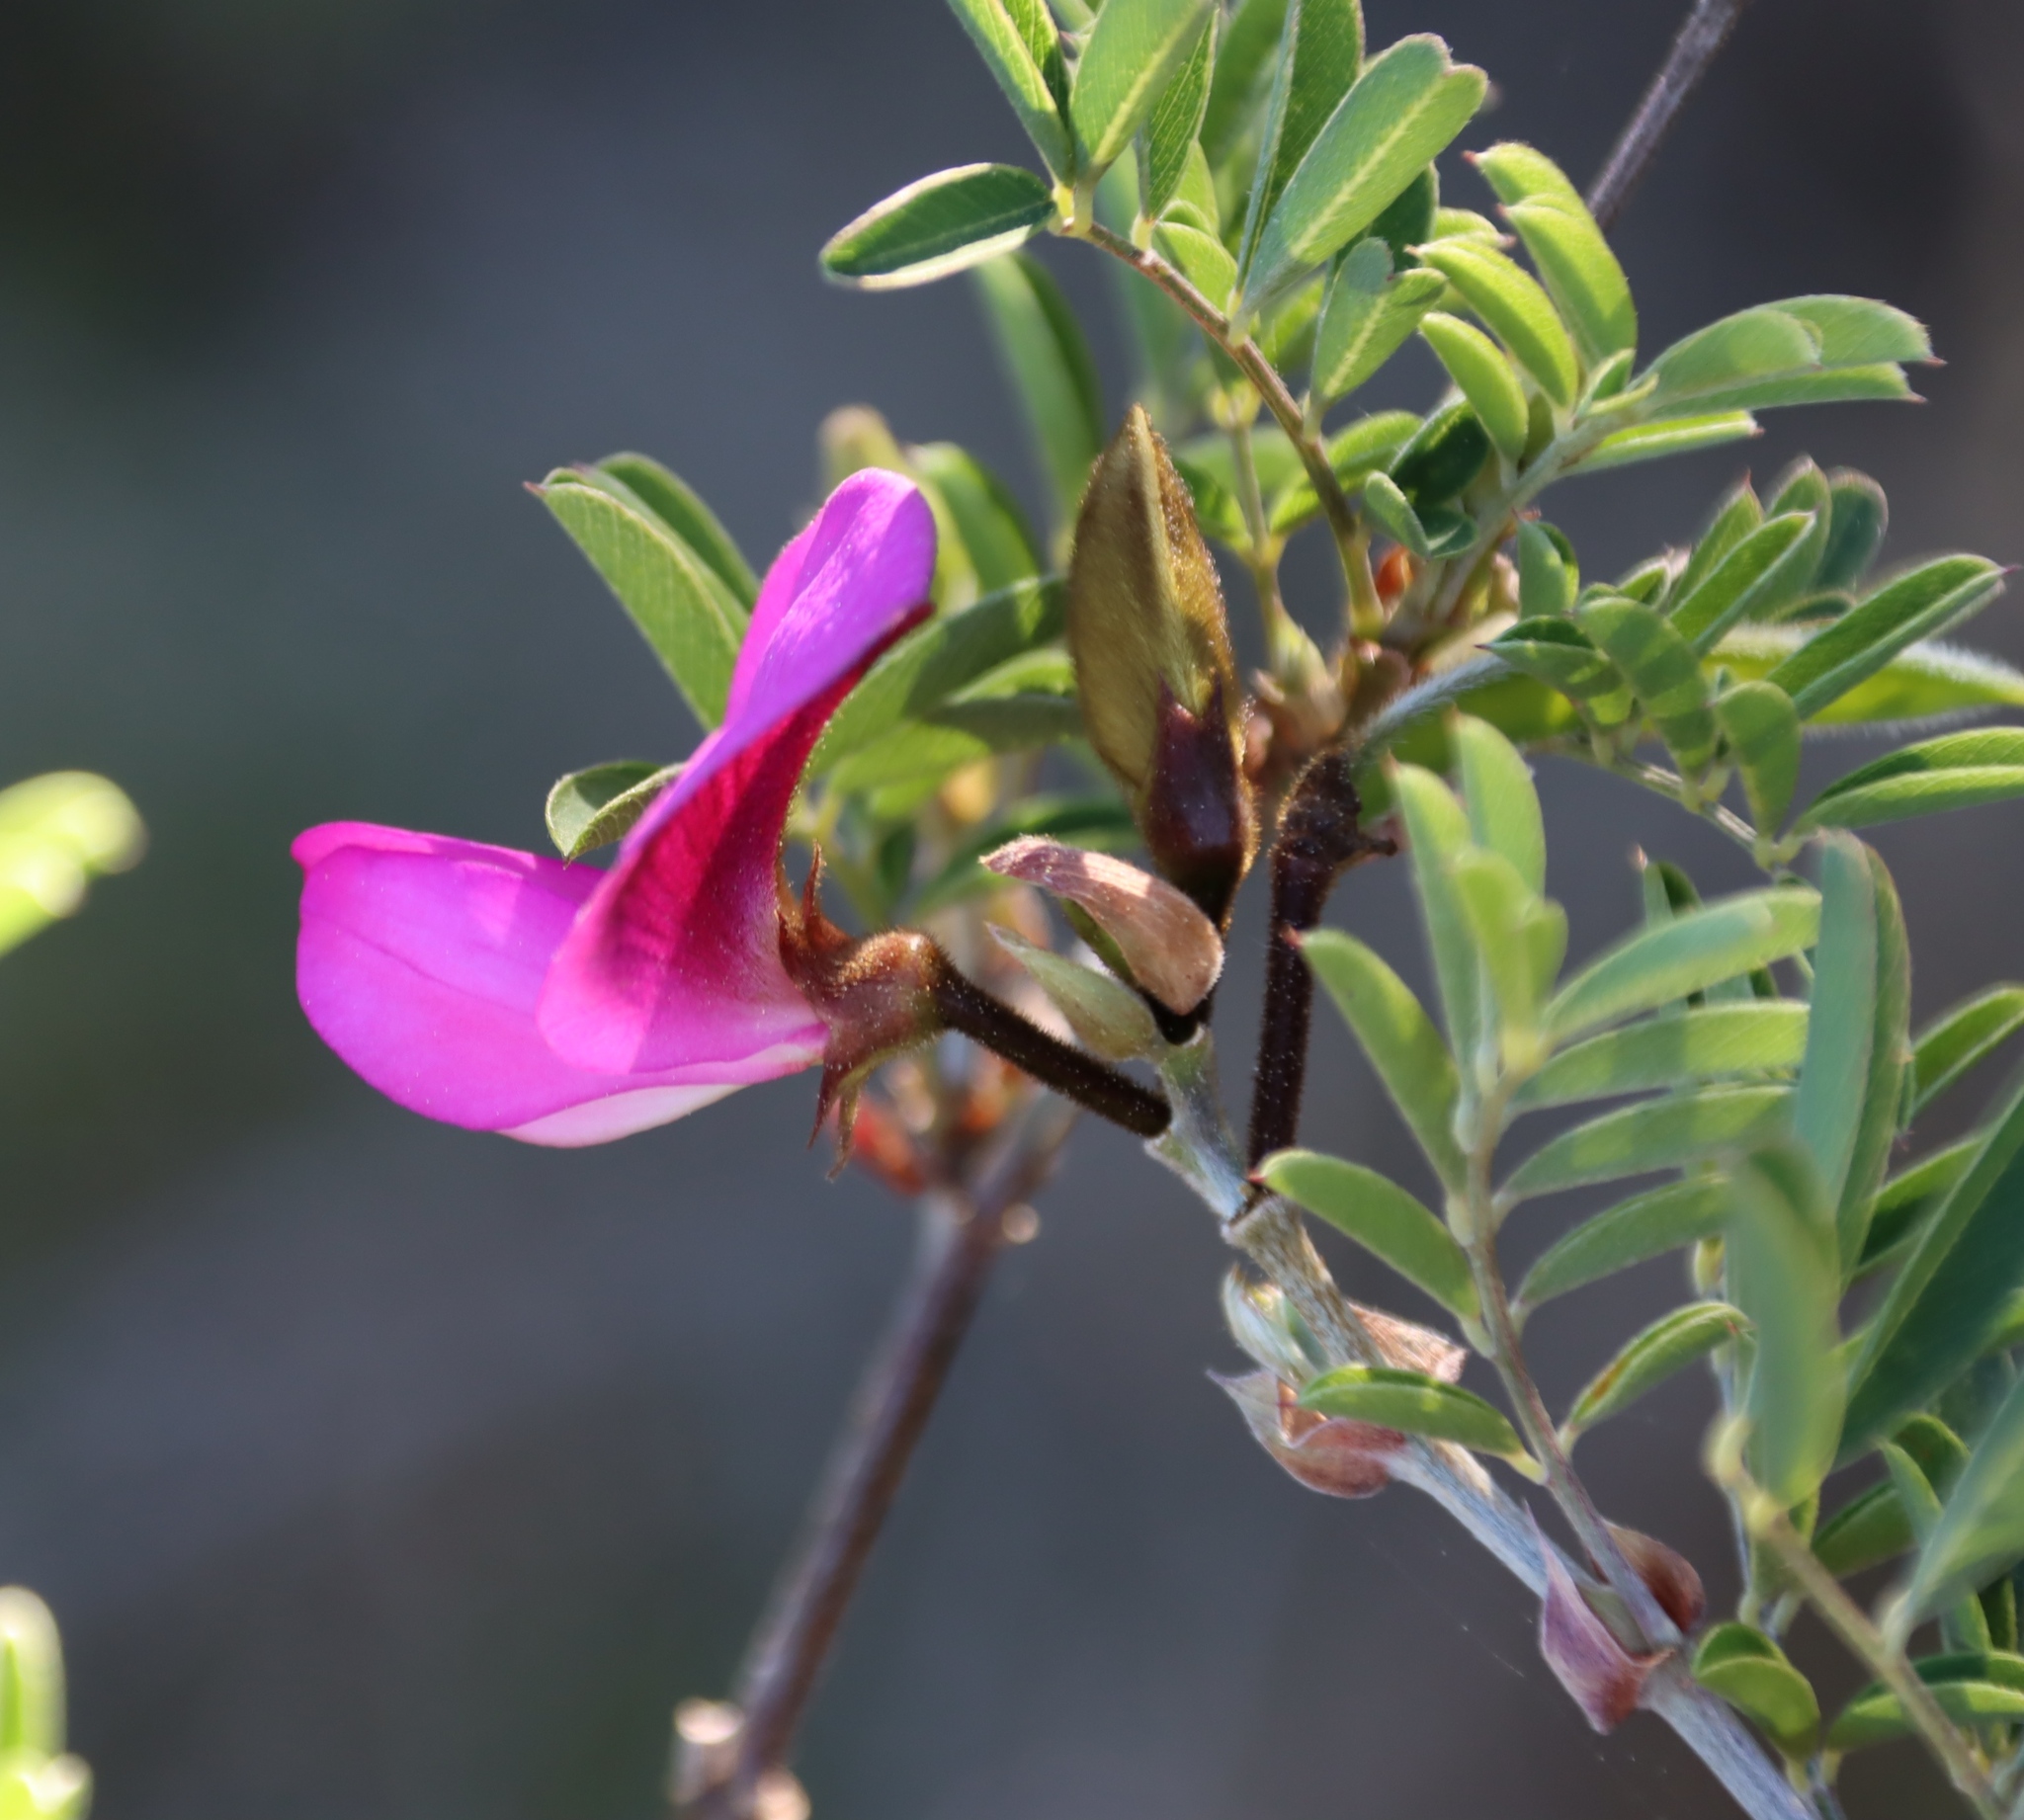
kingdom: Plantae
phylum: Tracheophyta
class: Magnoliopsida
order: Fabales
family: Fabaceae
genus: Tephrosia
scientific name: Tephrosia grandiflora
